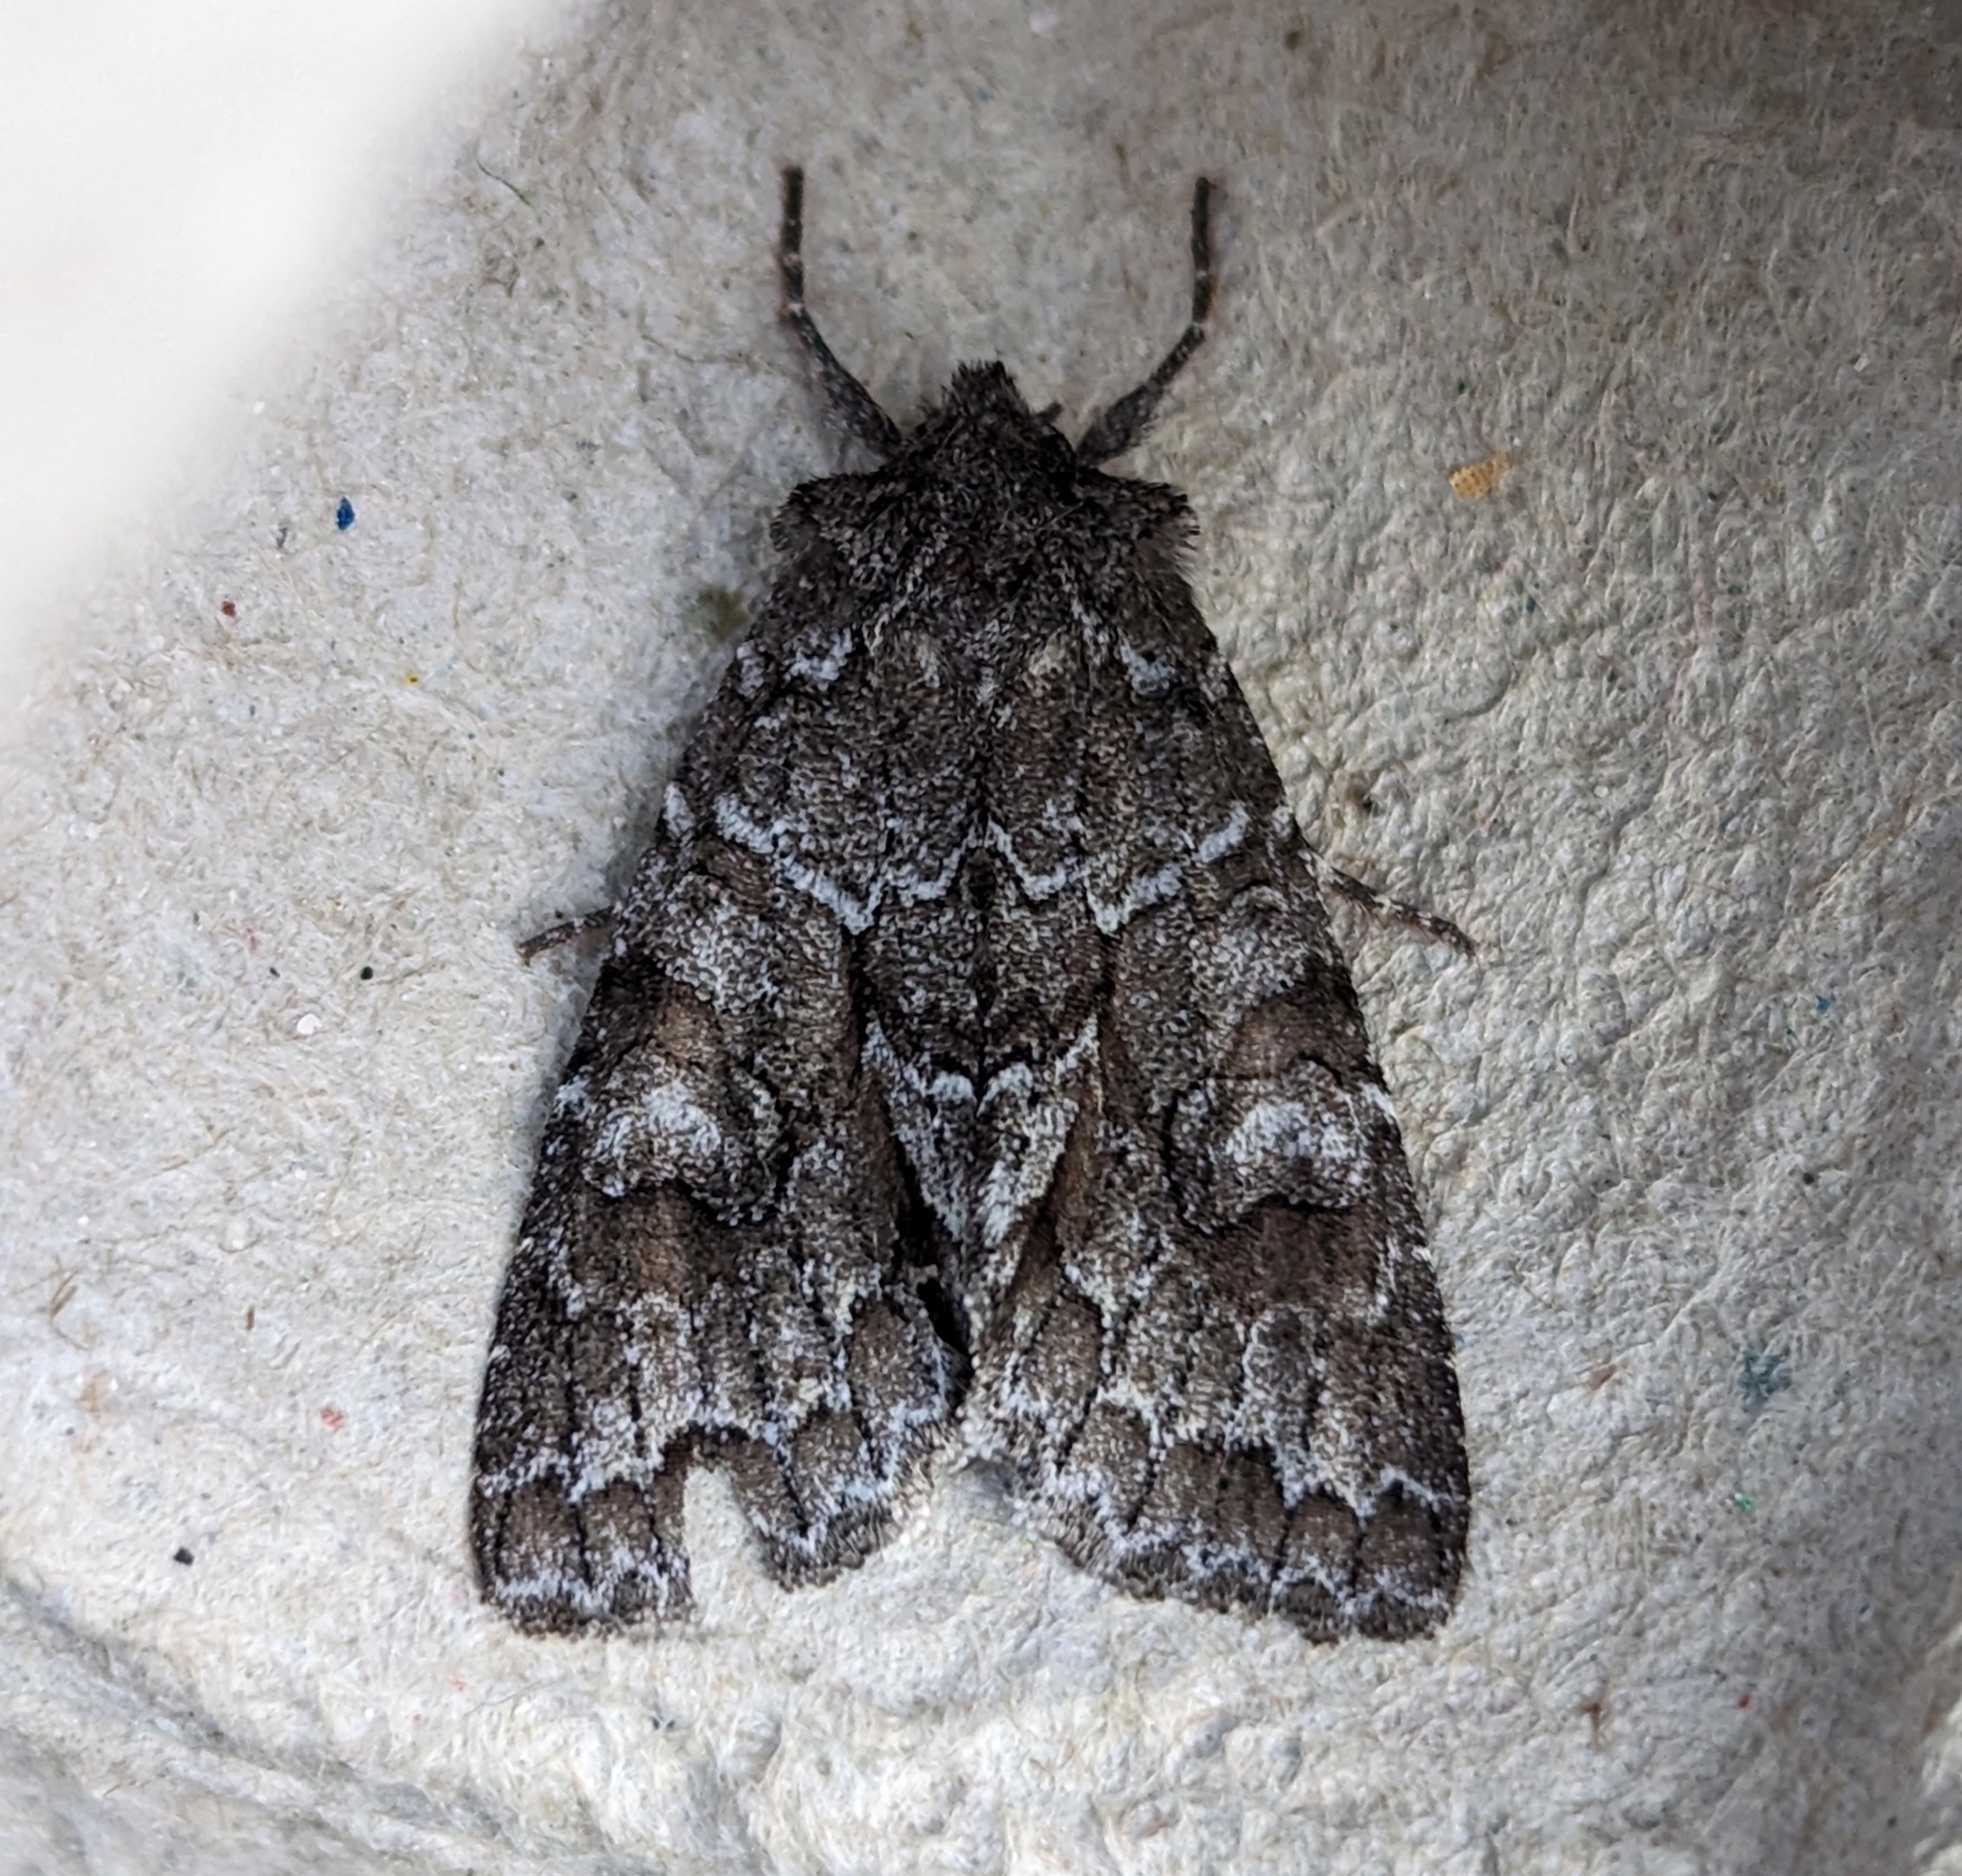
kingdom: Animalia
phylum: Arthropoda
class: Insecta
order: Lepidoptera
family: Noctuidae
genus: Xylotype
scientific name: Xylotype arcadia
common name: Acadian sallow
